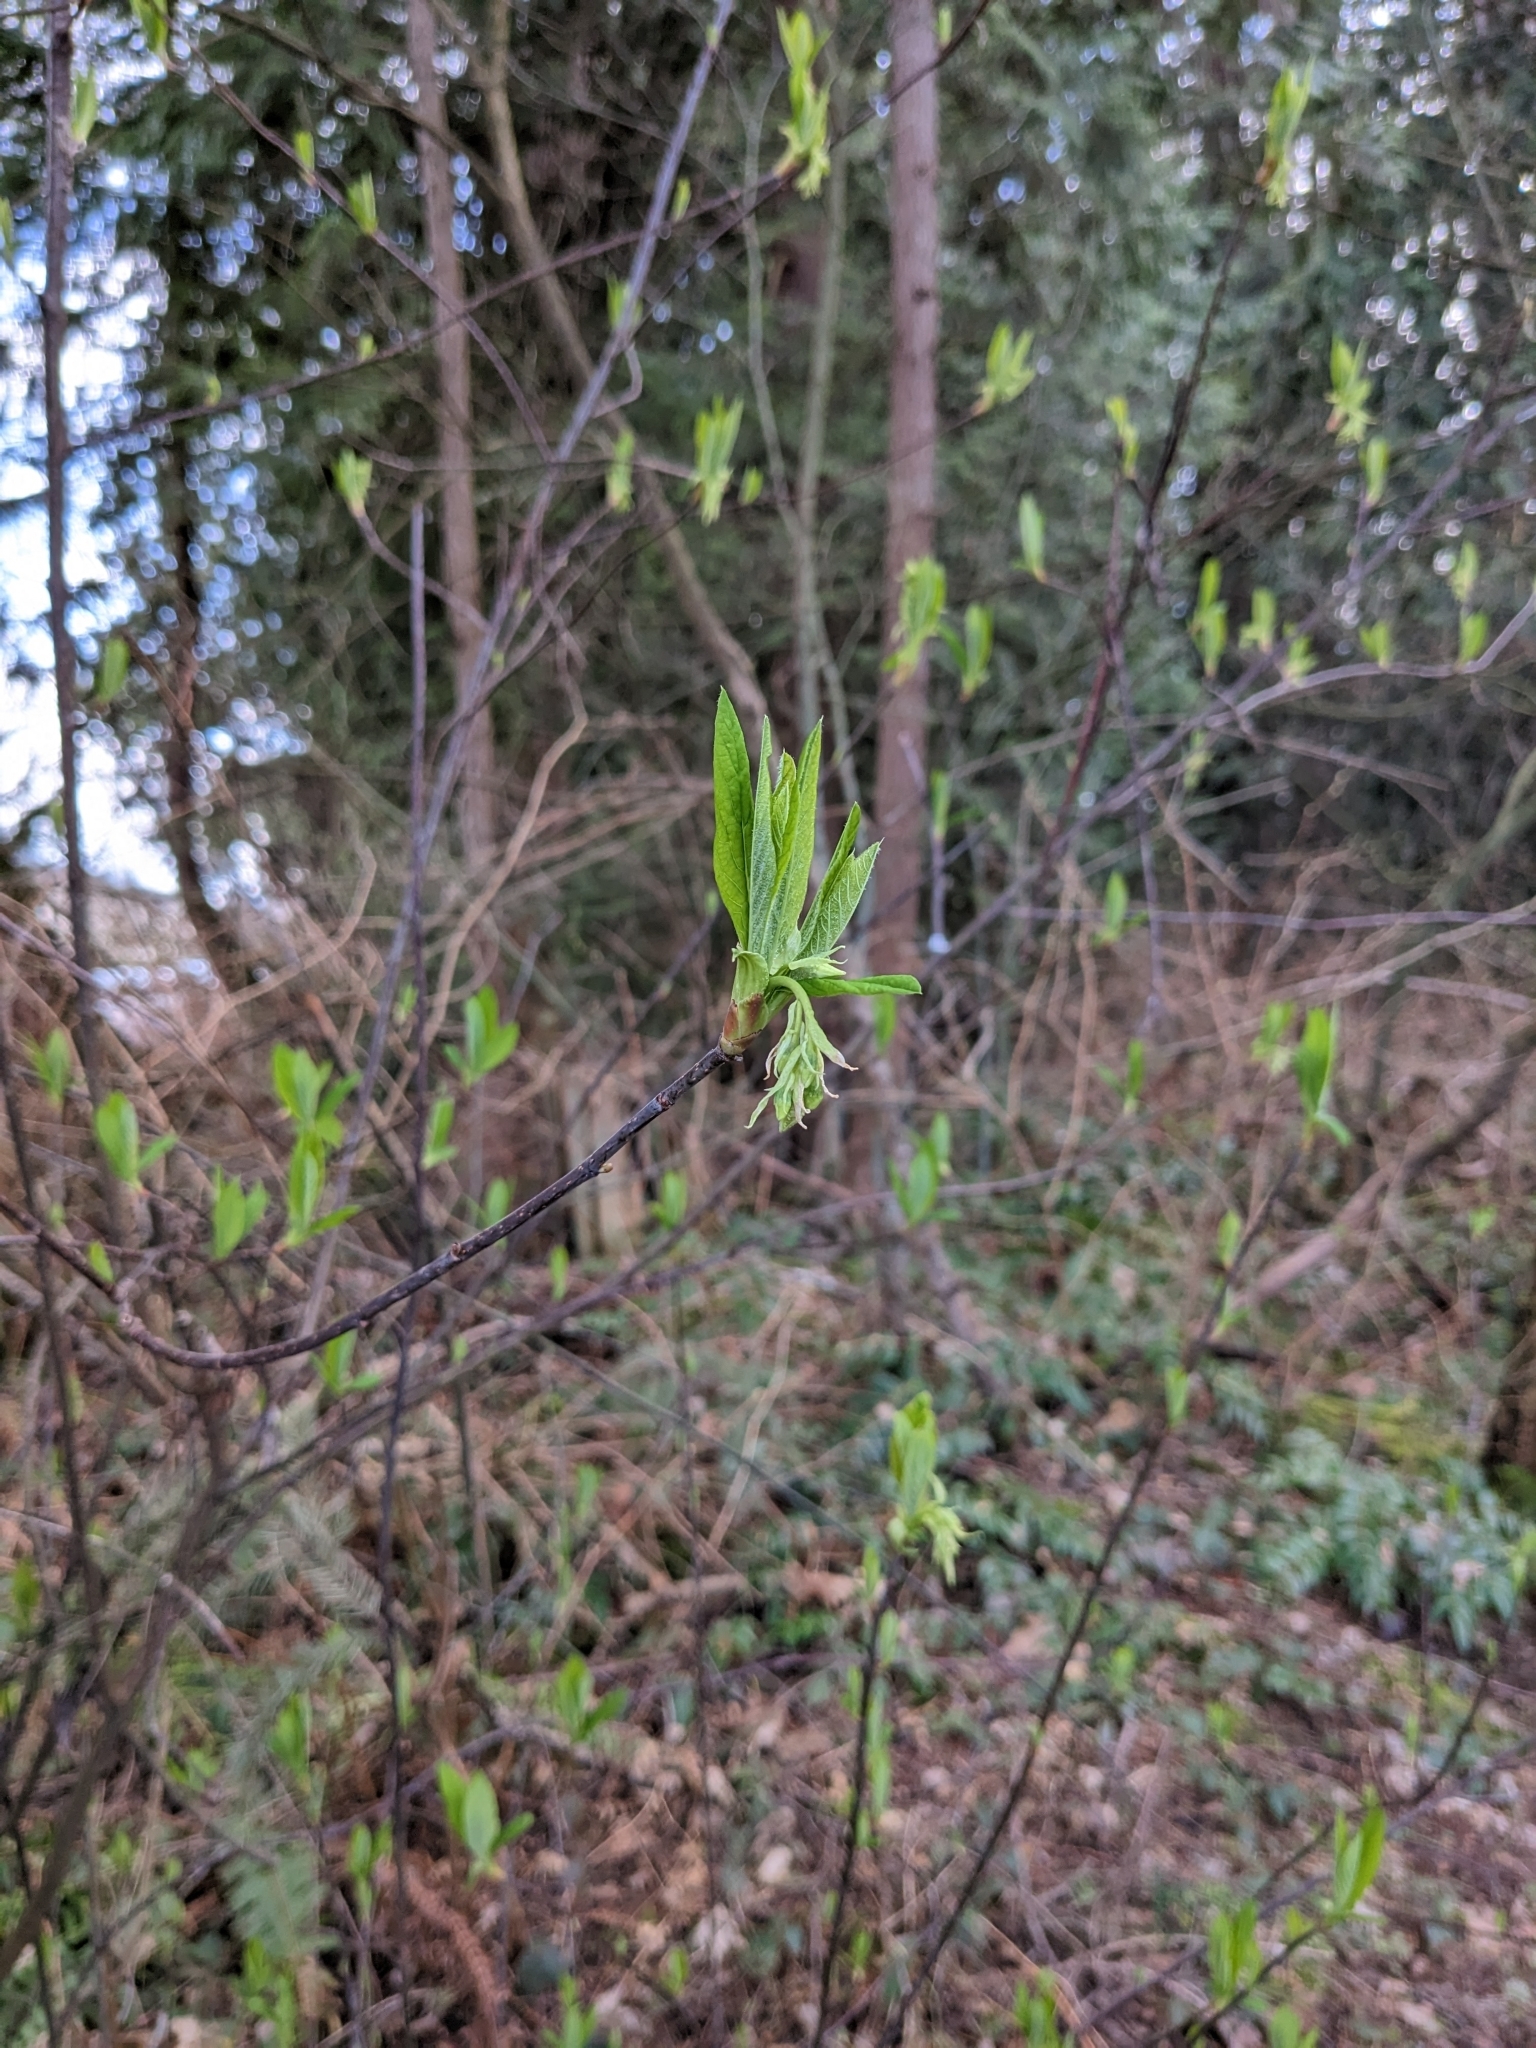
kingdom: Plantae
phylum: Tracheophyta
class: Magnoliopsida
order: Rosales
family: Rosaceae
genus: Oemleria
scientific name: Oemleria cerasiformis
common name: Osoberry
